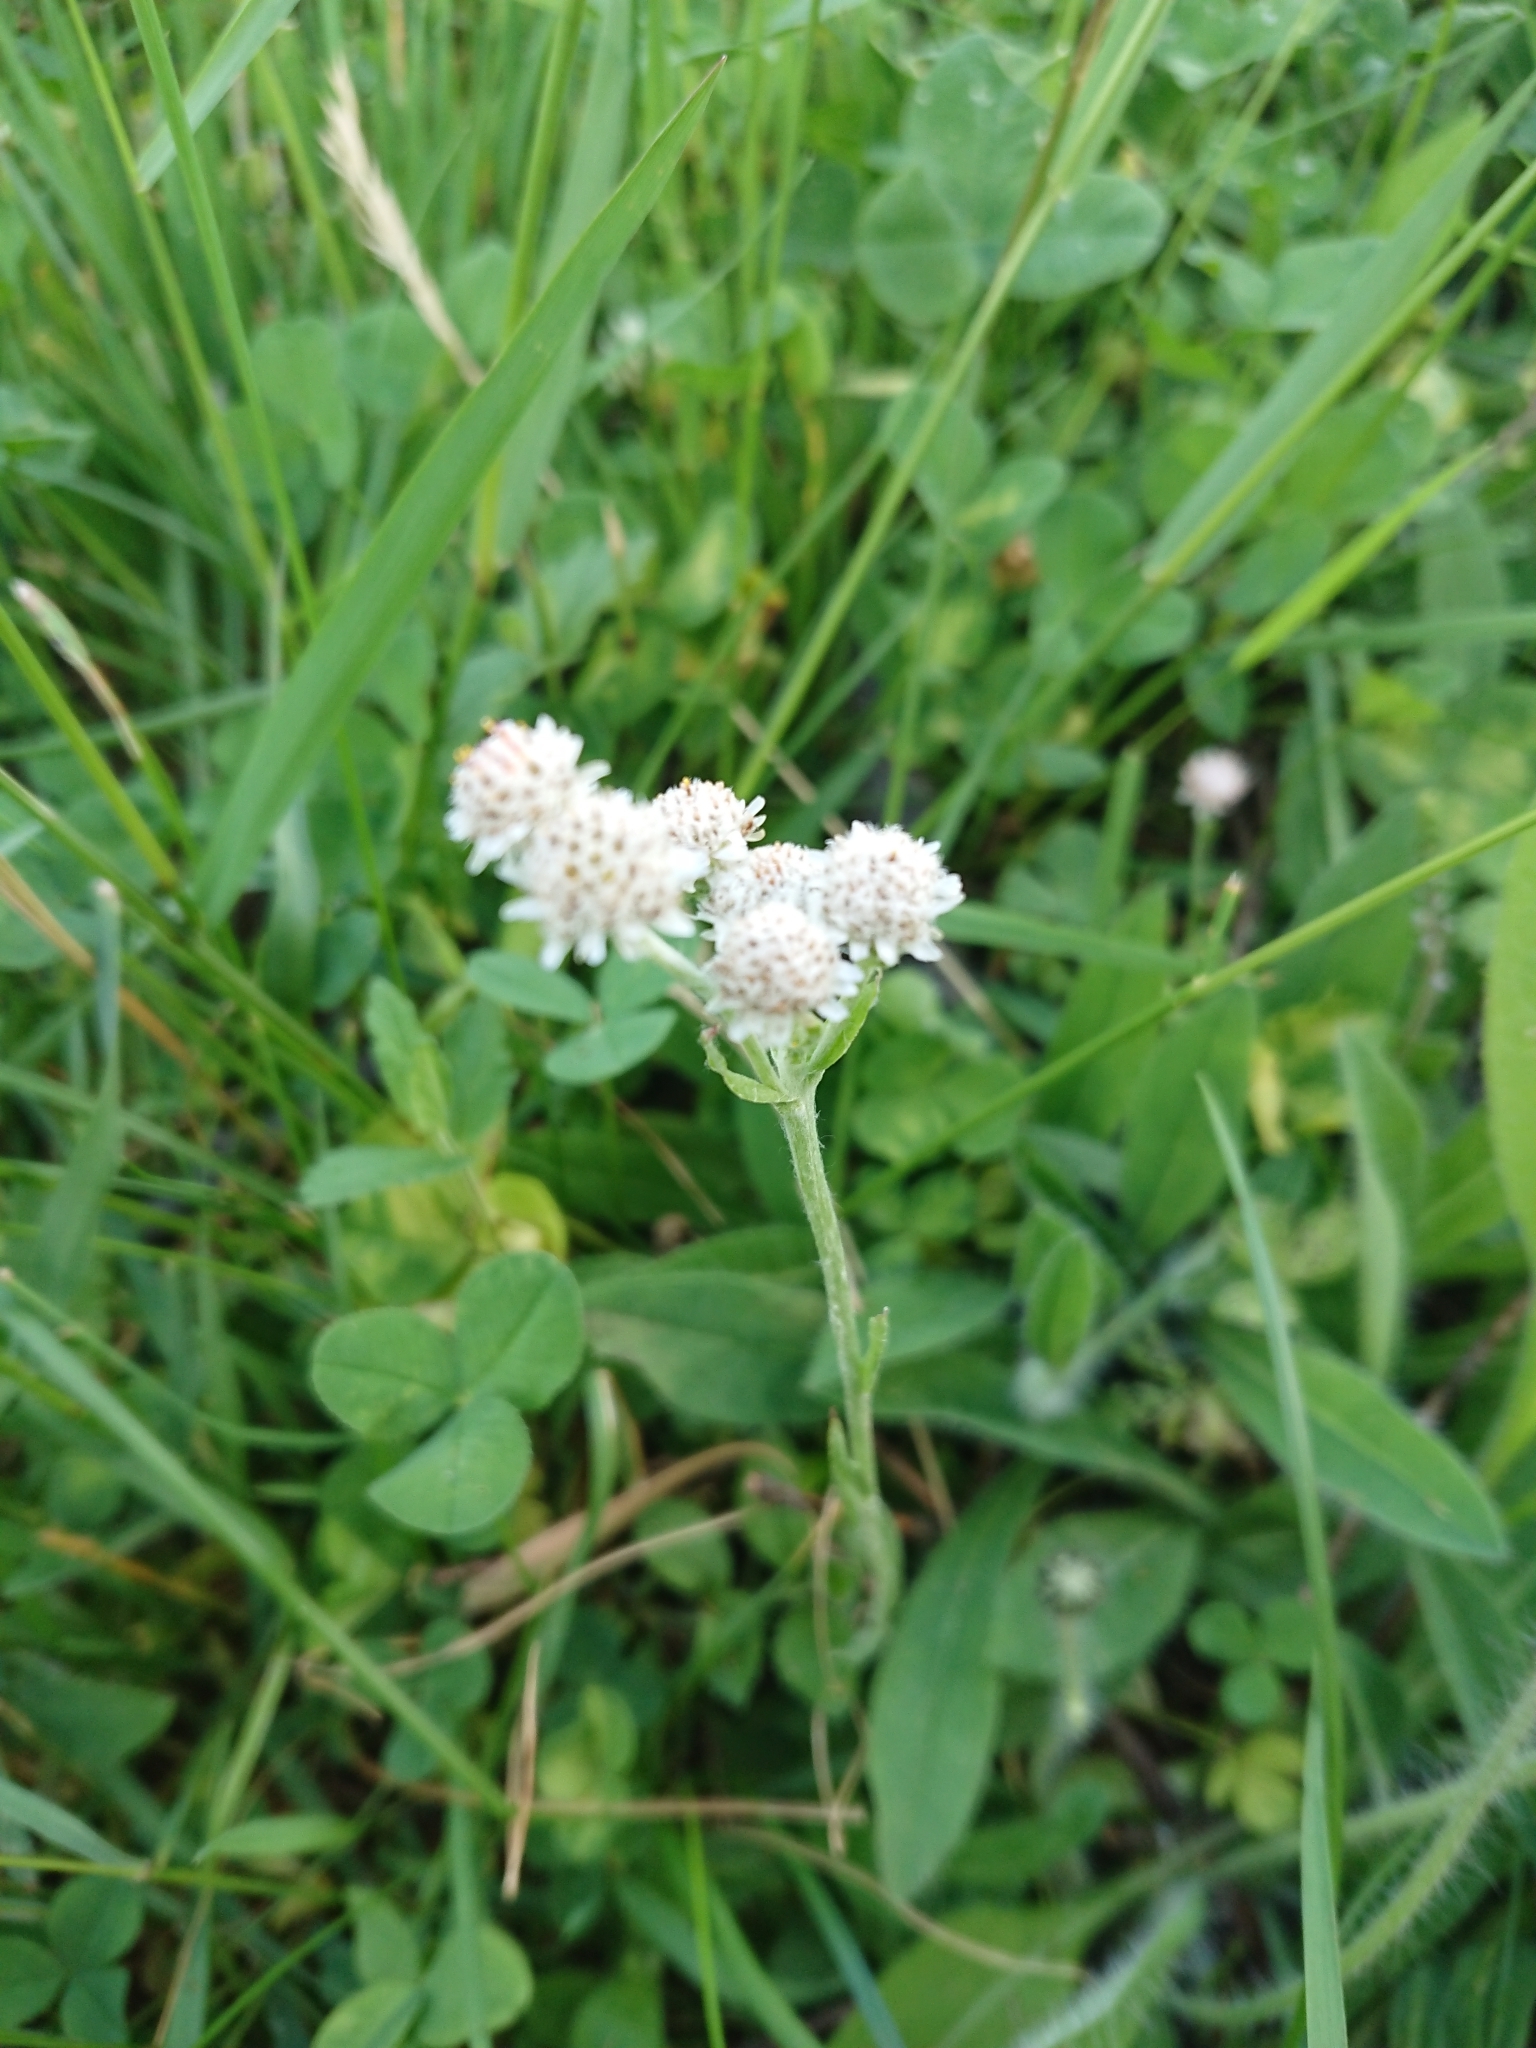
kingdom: Plantae
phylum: Tracheophyta
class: Magnoliopsida
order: Asterales
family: Asteraceae
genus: Antennaria
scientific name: Antennaria dioica
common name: Mountain everlasting
